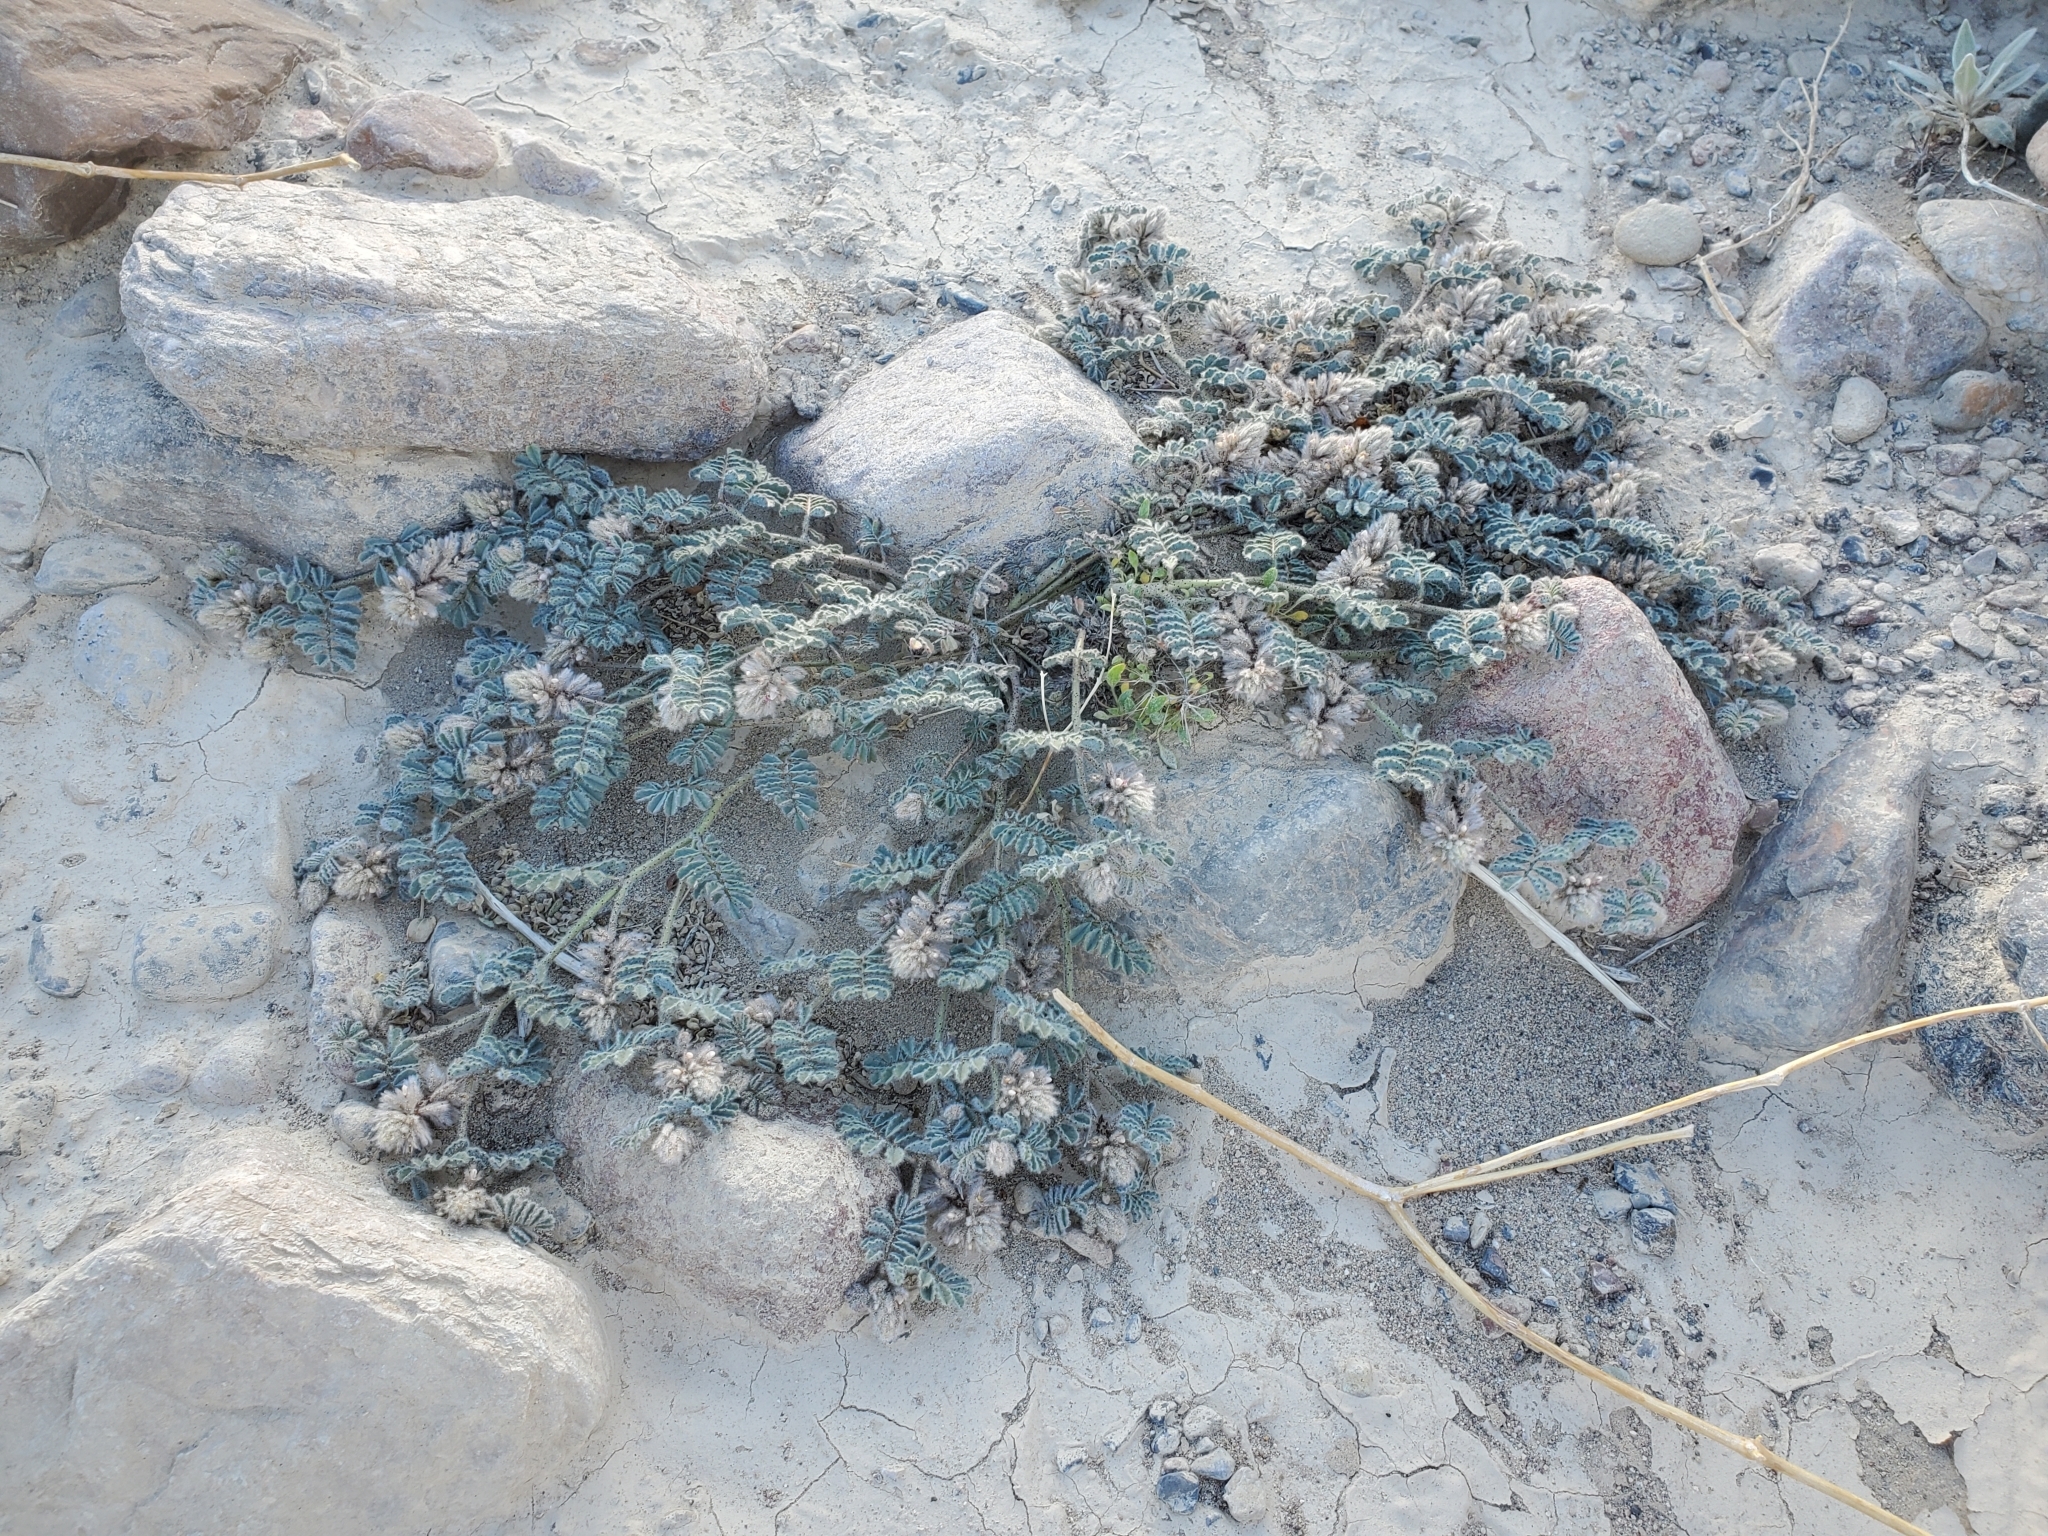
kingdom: Plantae
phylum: Tracheophyta
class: Magnoliopsida
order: Fabales
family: Fabaceae
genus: Dalea
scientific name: Dalea mollissima
